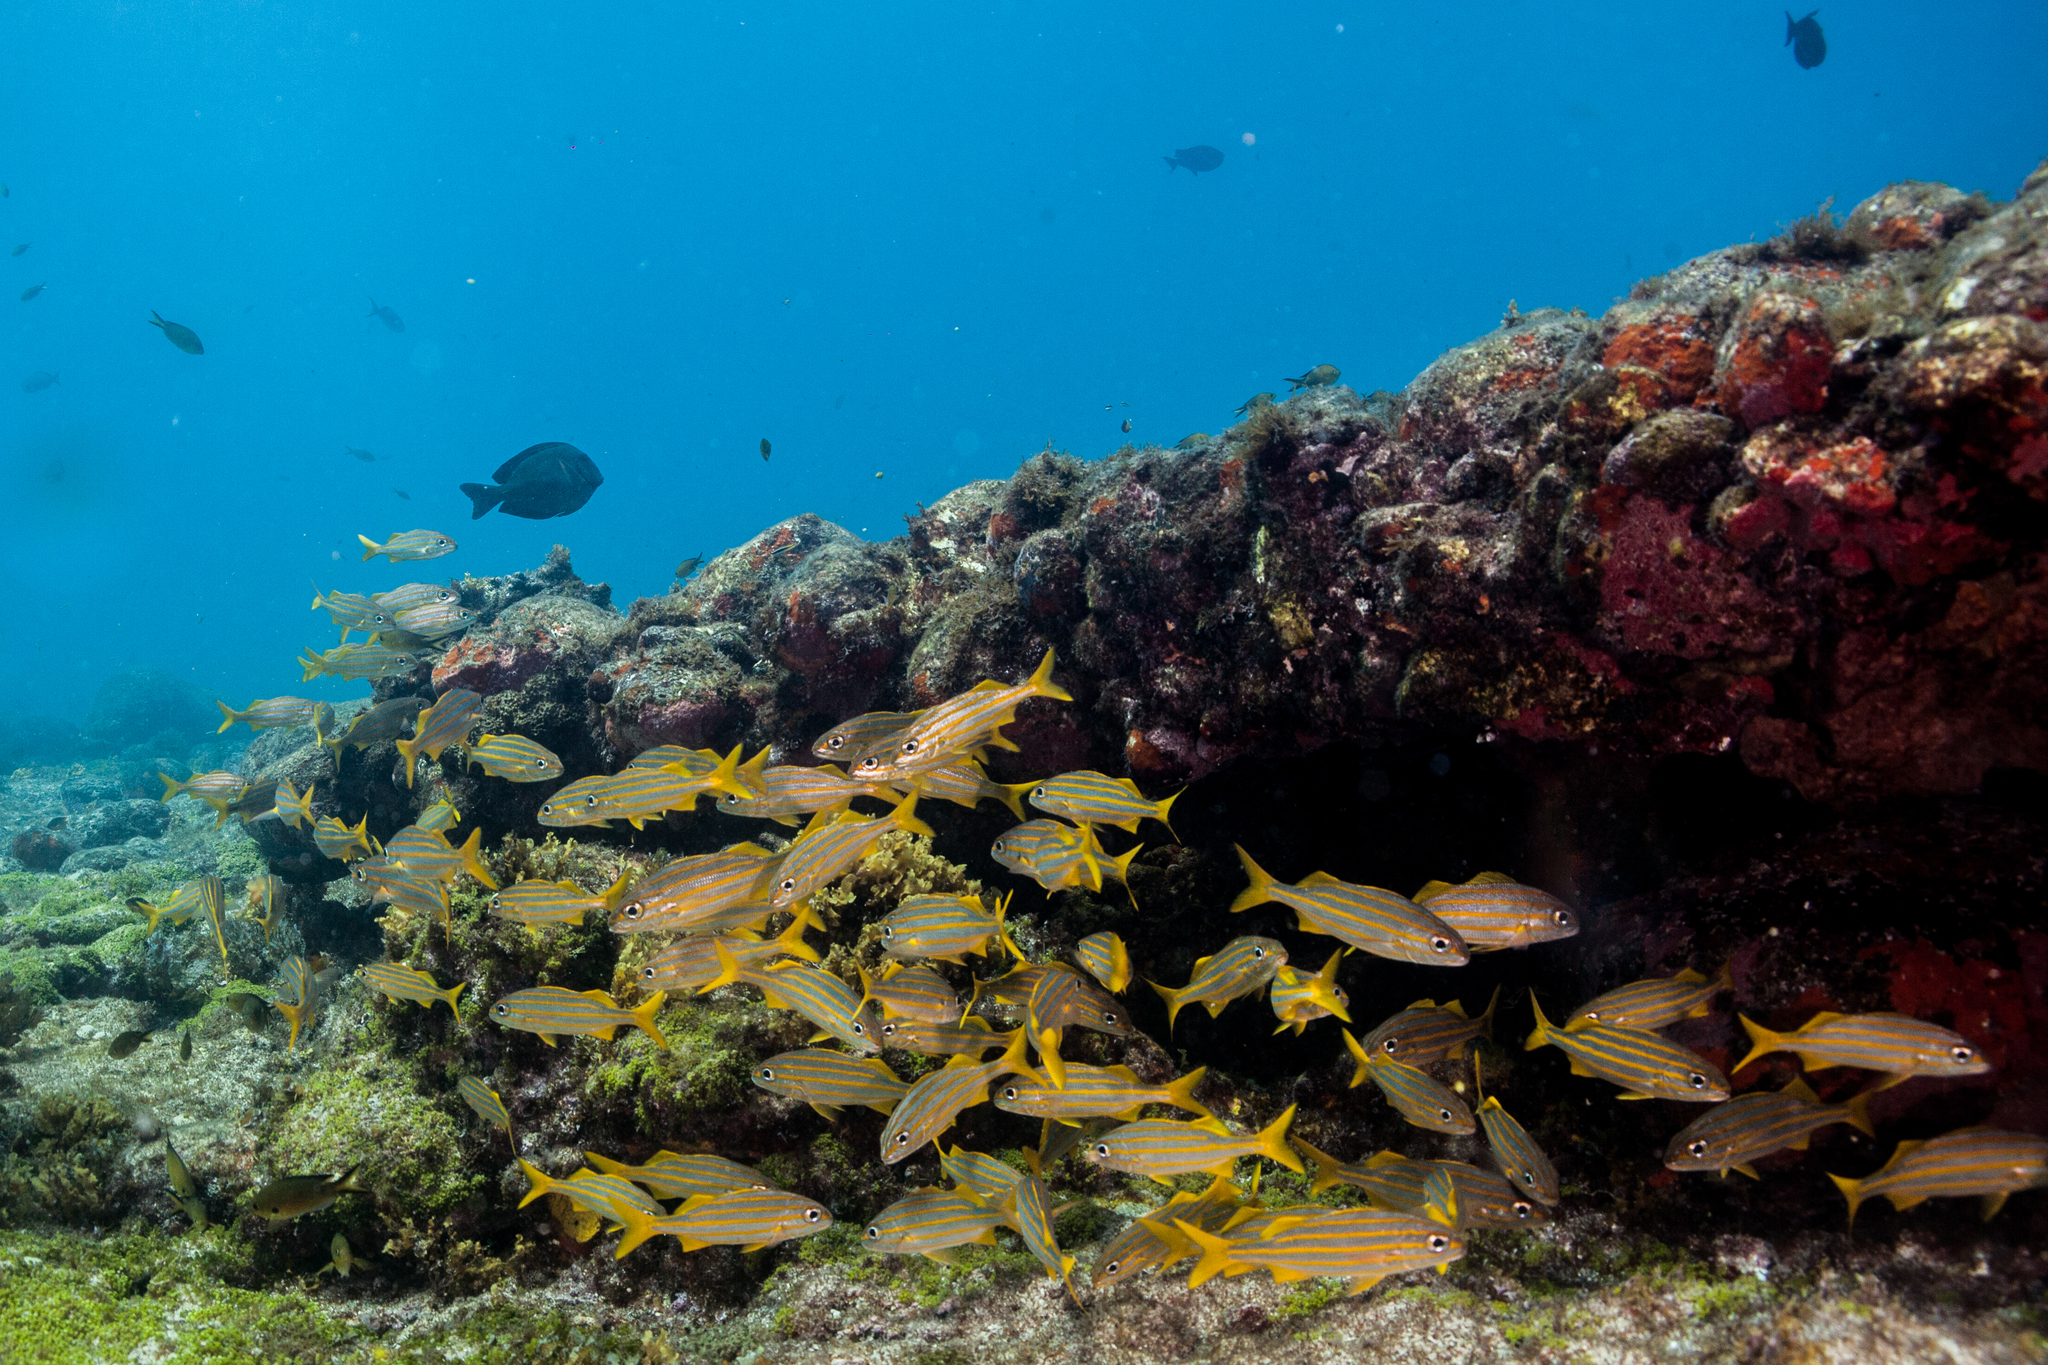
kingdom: Animalia
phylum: Chordata
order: Perciformes
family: Haemulidae
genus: Haemulon
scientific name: Haemulon chrysargyreum
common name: Smallmouth grunt
